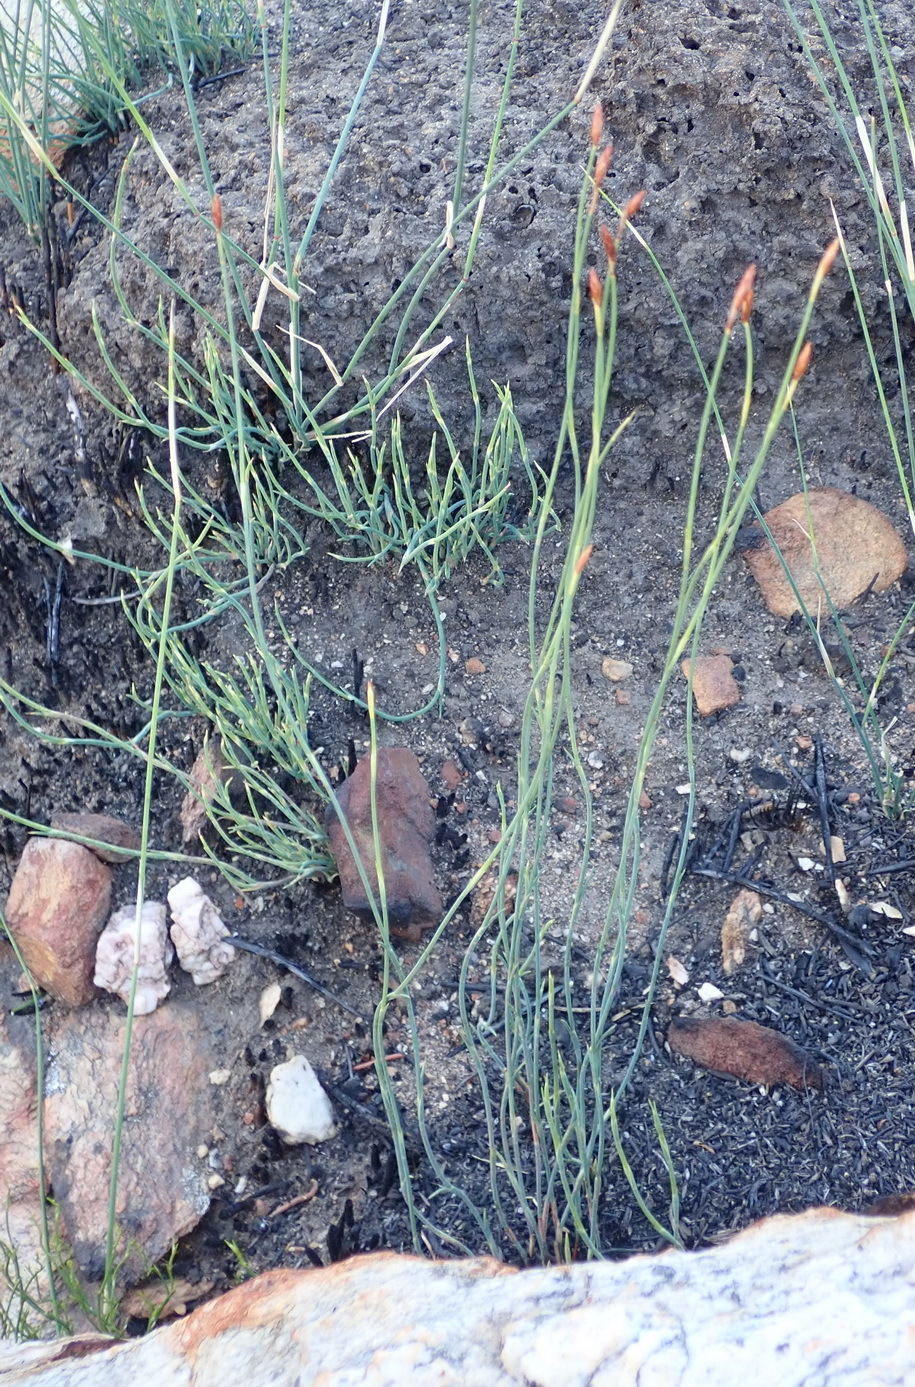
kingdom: Plantae
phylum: Tracheophyta
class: Liliopsida
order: Poales
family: Restionaceae
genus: Hypodiscus
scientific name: Hypodiscus striatus
